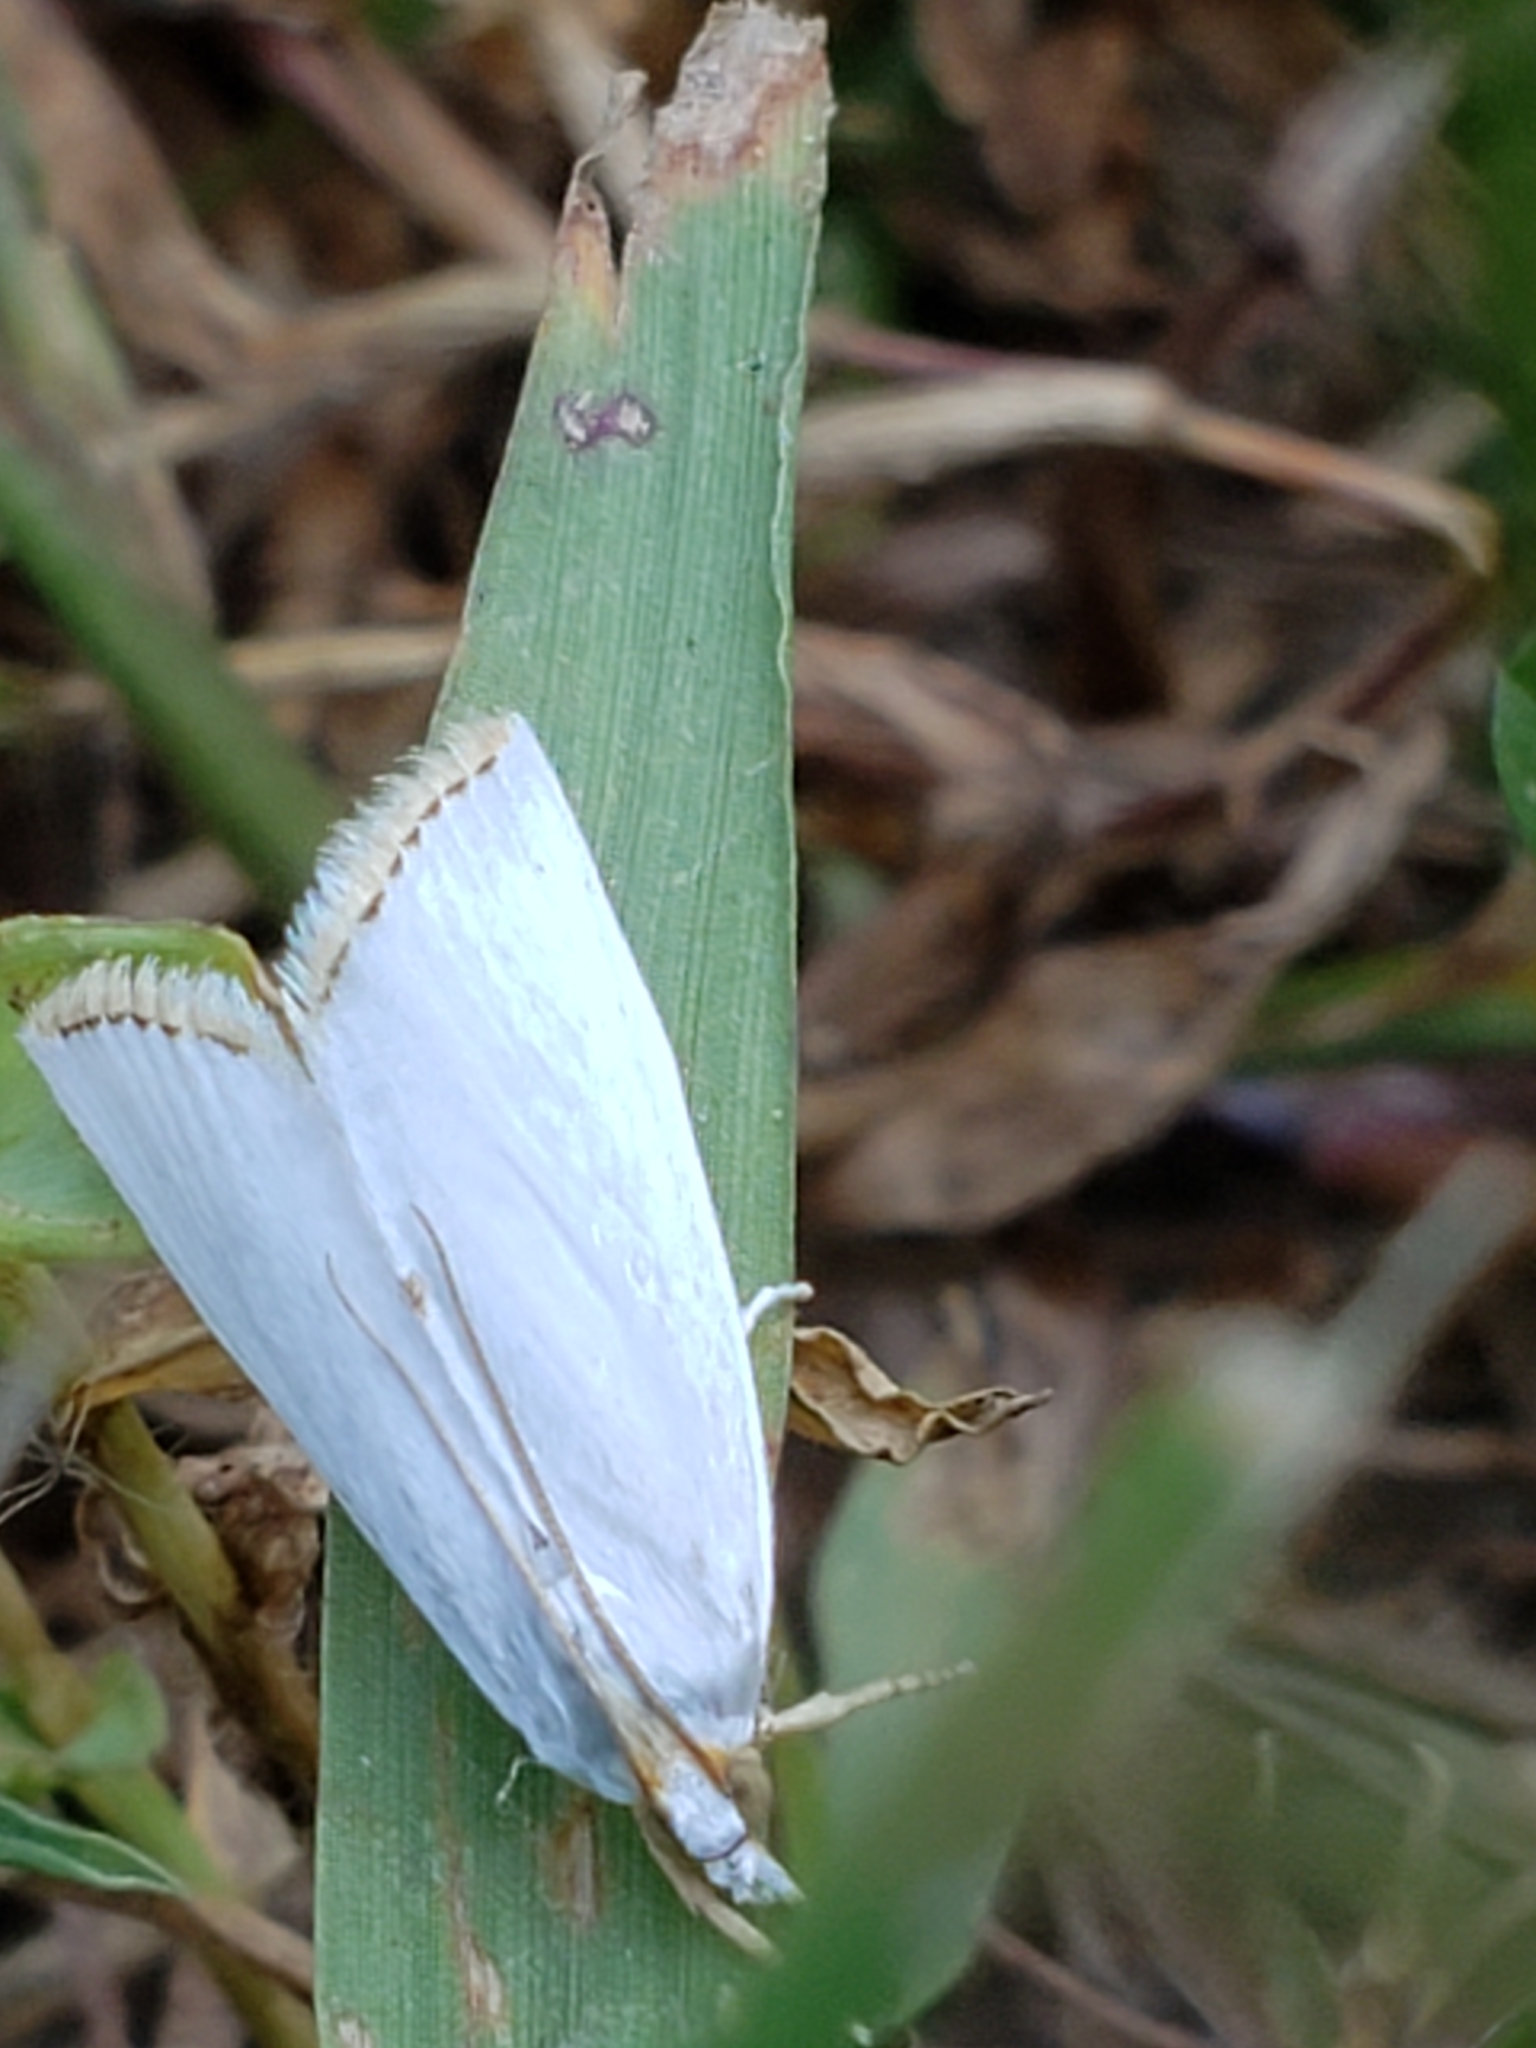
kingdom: Animalia
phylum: Arthropoda
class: Insecta
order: Lepidoptera
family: Crambidae
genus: Argyria
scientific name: Argyria nivalis
